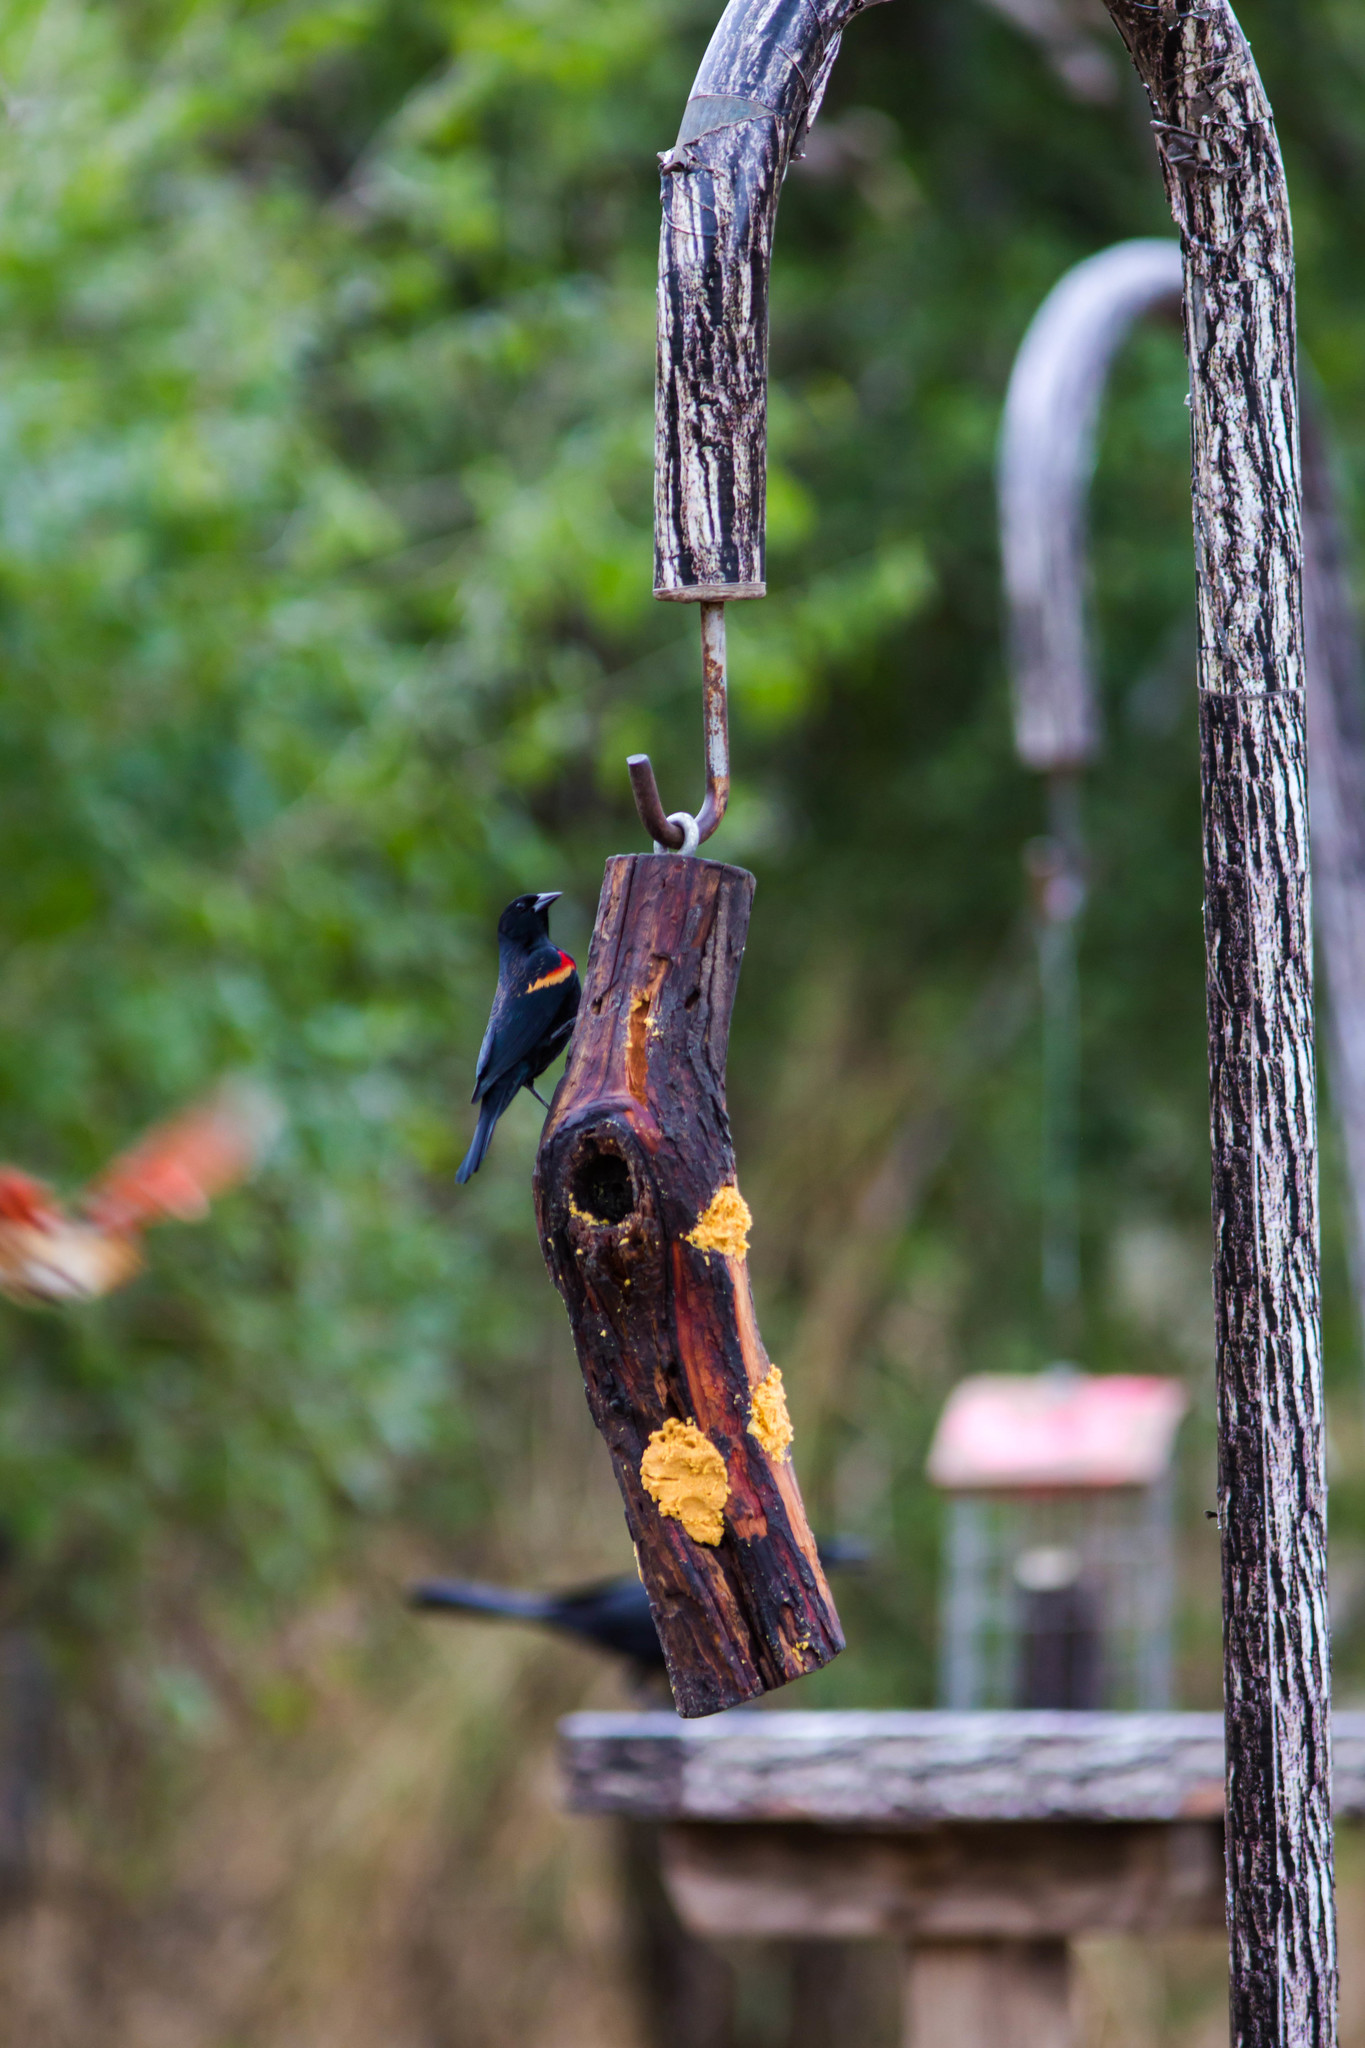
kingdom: Animalia
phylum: Chordata
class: Aves
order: Passeriformes
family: Icteridae
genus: Agelaius
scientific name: Agelaius phoeniceus
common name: Red-winged blackbird
